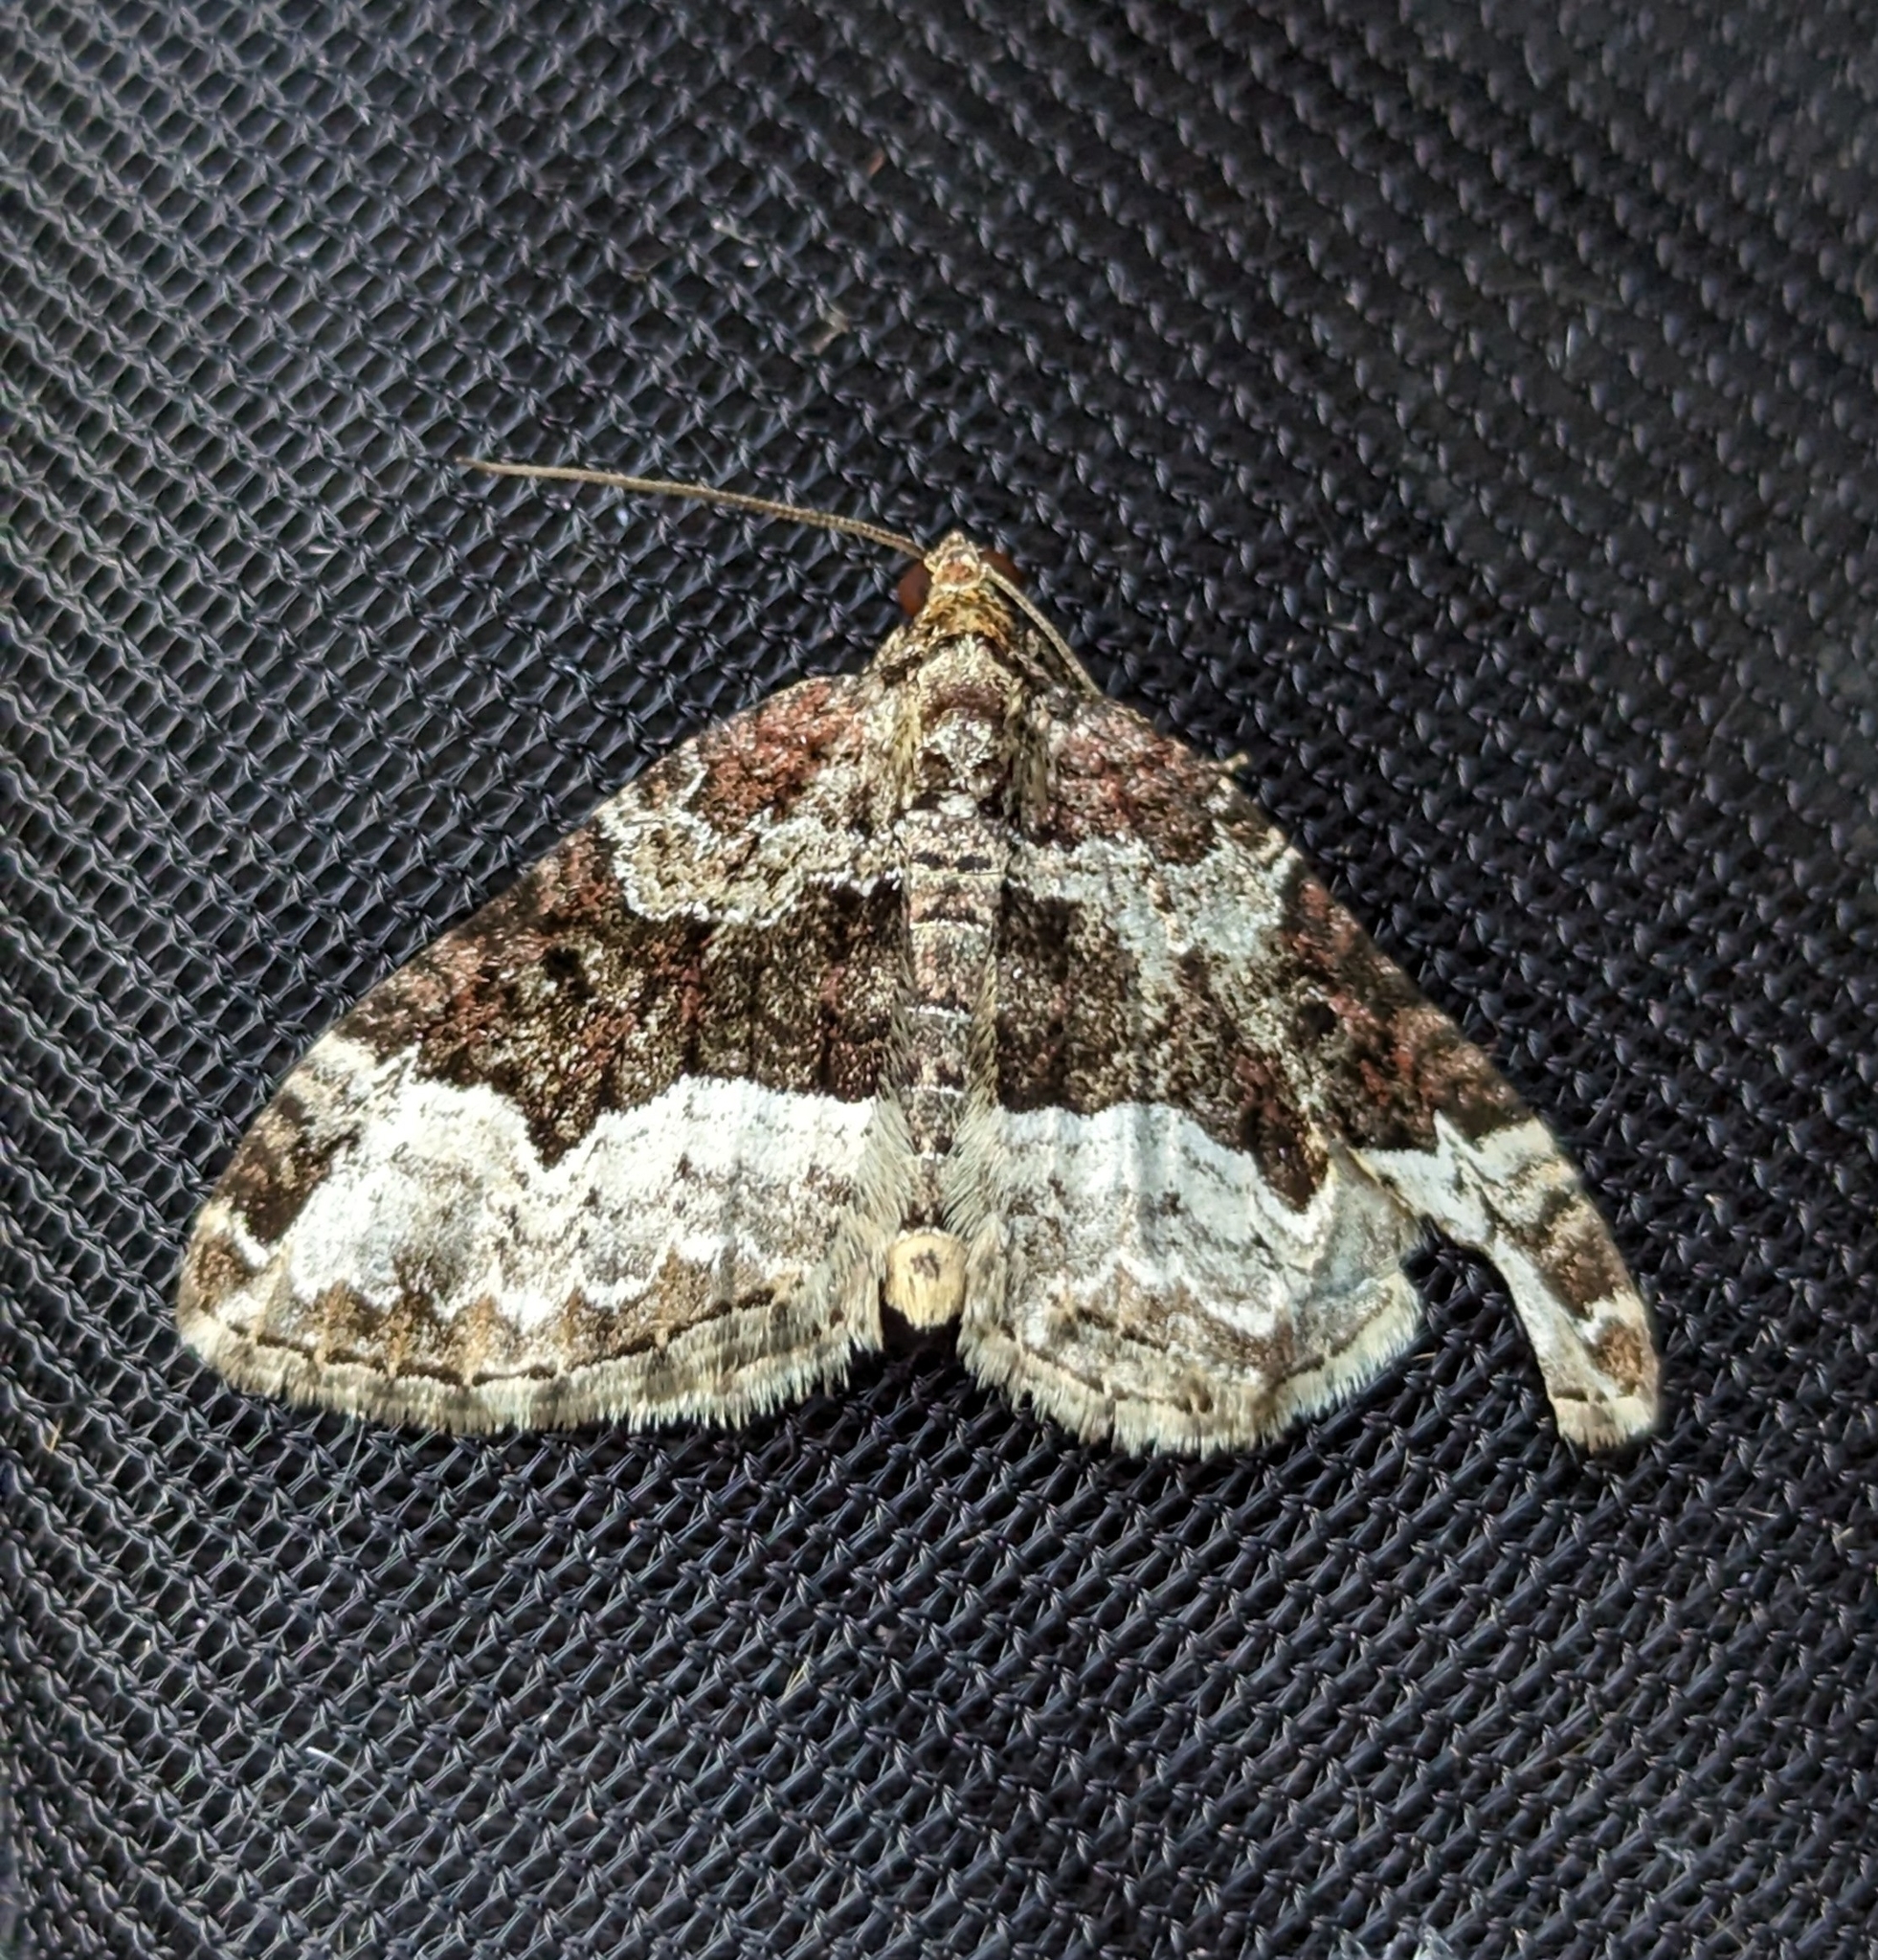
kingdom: Animalia
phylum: Arthropoda
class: Insecta
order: Lepidoptera
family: Geometridae
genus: Euphyia
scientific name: Euphyia intermediata
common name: Sharp-angled carpet
